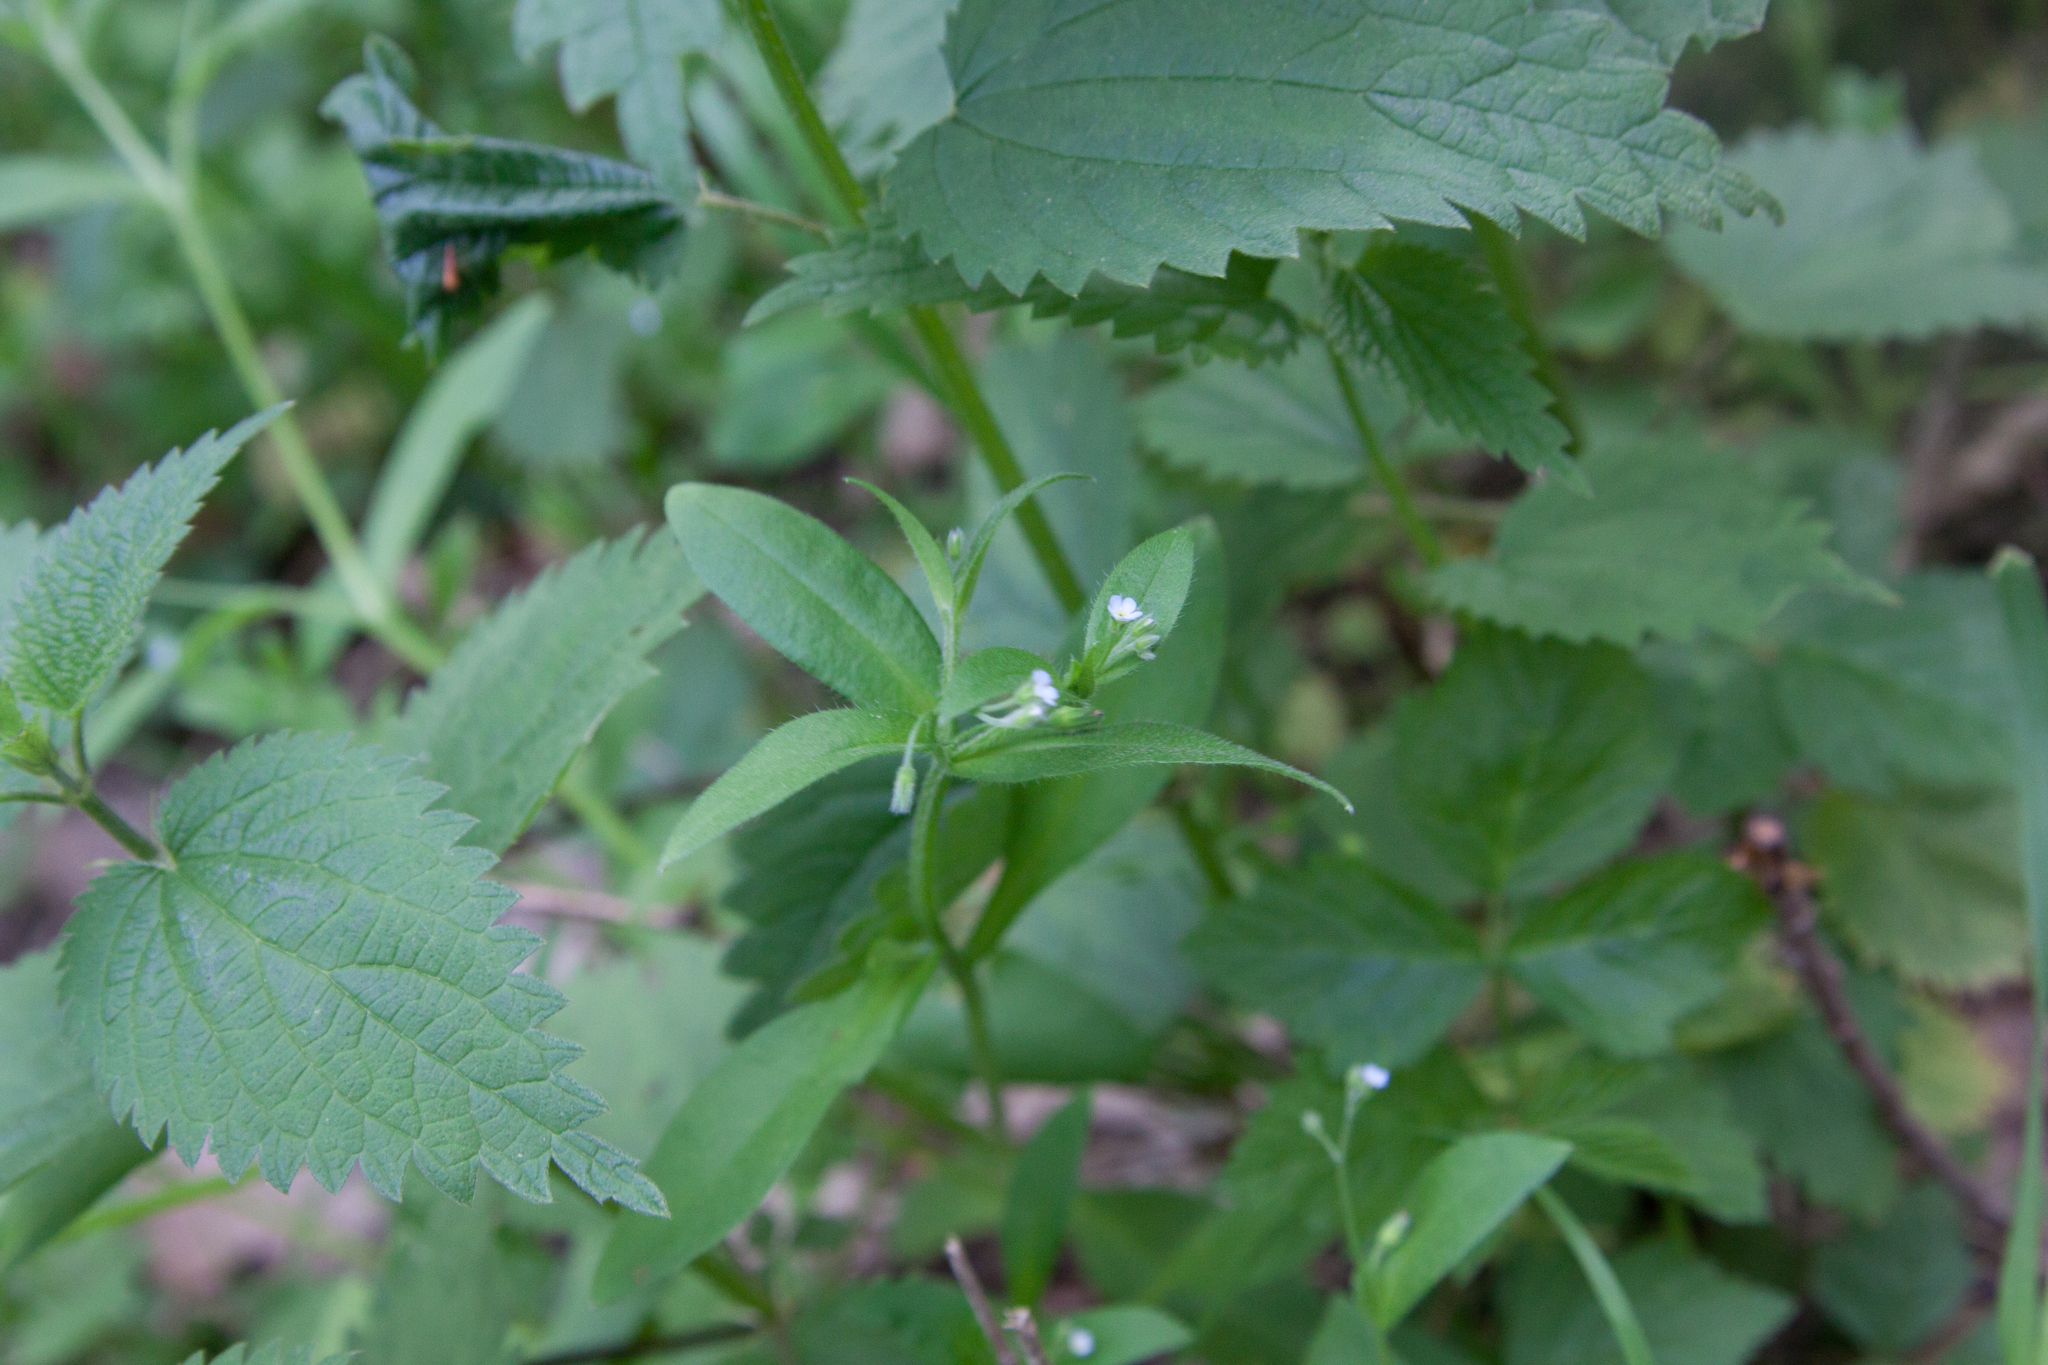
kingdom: Plantae
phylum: Tracheophyta
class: Magnoliopsida
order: Boraginales
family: Boraginaceae
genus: Myosotis
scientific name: Myosotis sparsiflora
